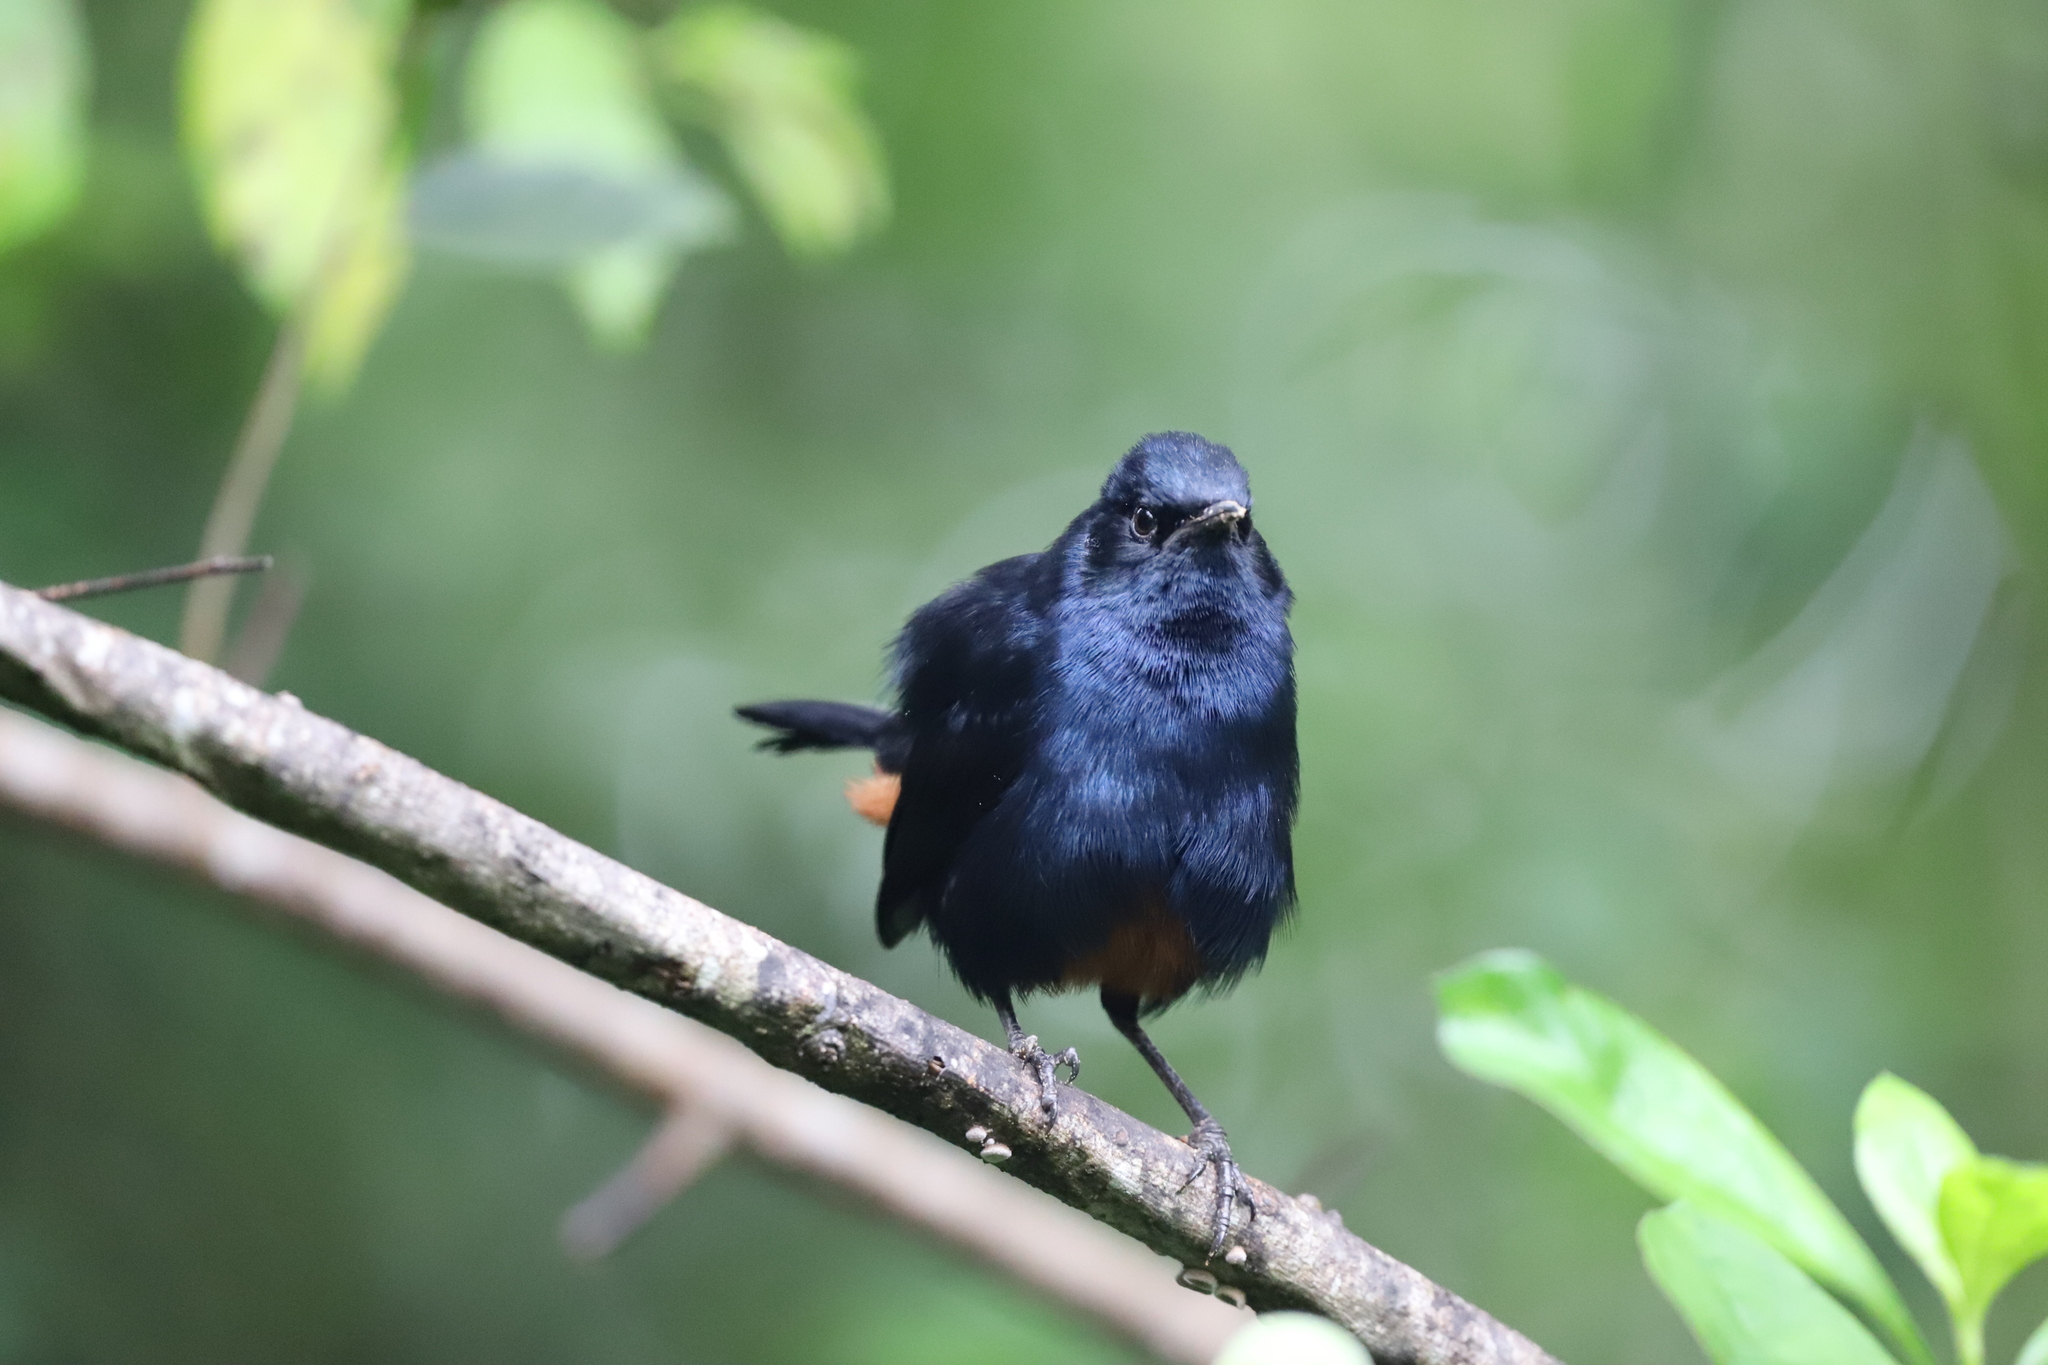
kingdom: Animalia
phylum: Chordata
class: Aves
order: Passeriformes
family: Muscicapidae
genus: Saxicoloides
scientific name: Saxicoloides fulicatus
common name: Indian robin
